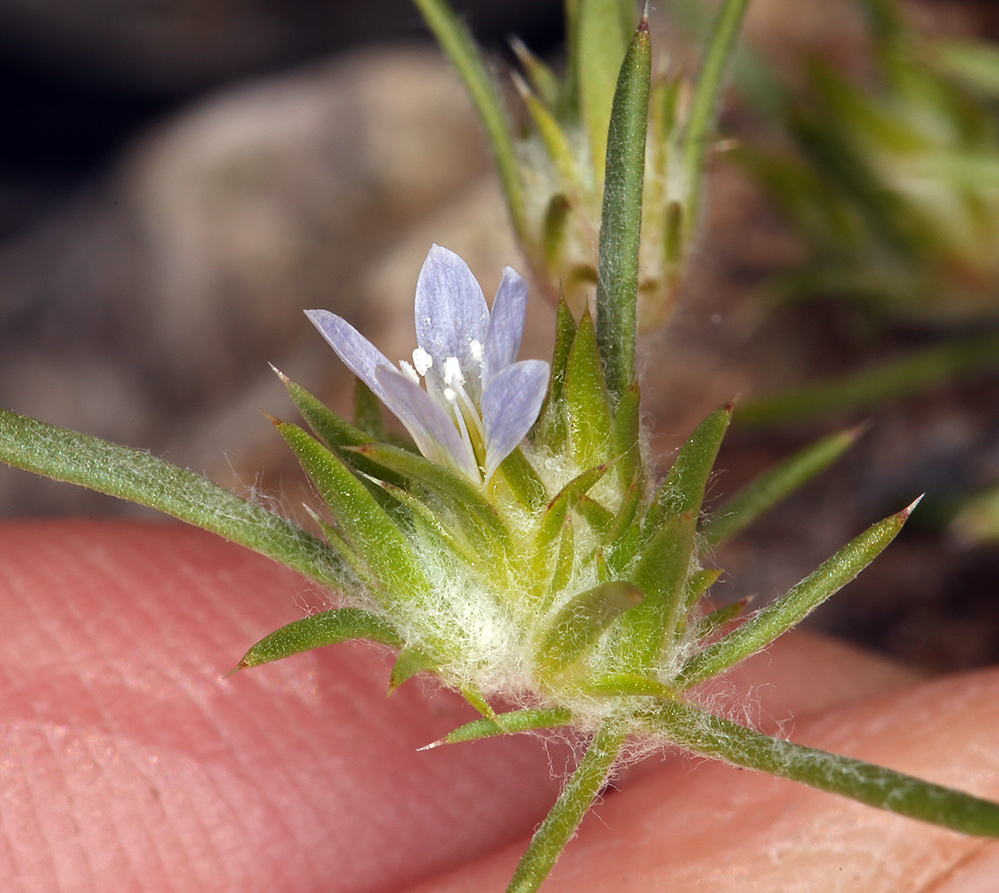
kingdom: Plantae
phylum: Tracheophyta
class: Magnoliopsida
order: Ericales
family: Polemoniaceae
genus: Eriastrum
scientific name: Eriastrum diffusum
